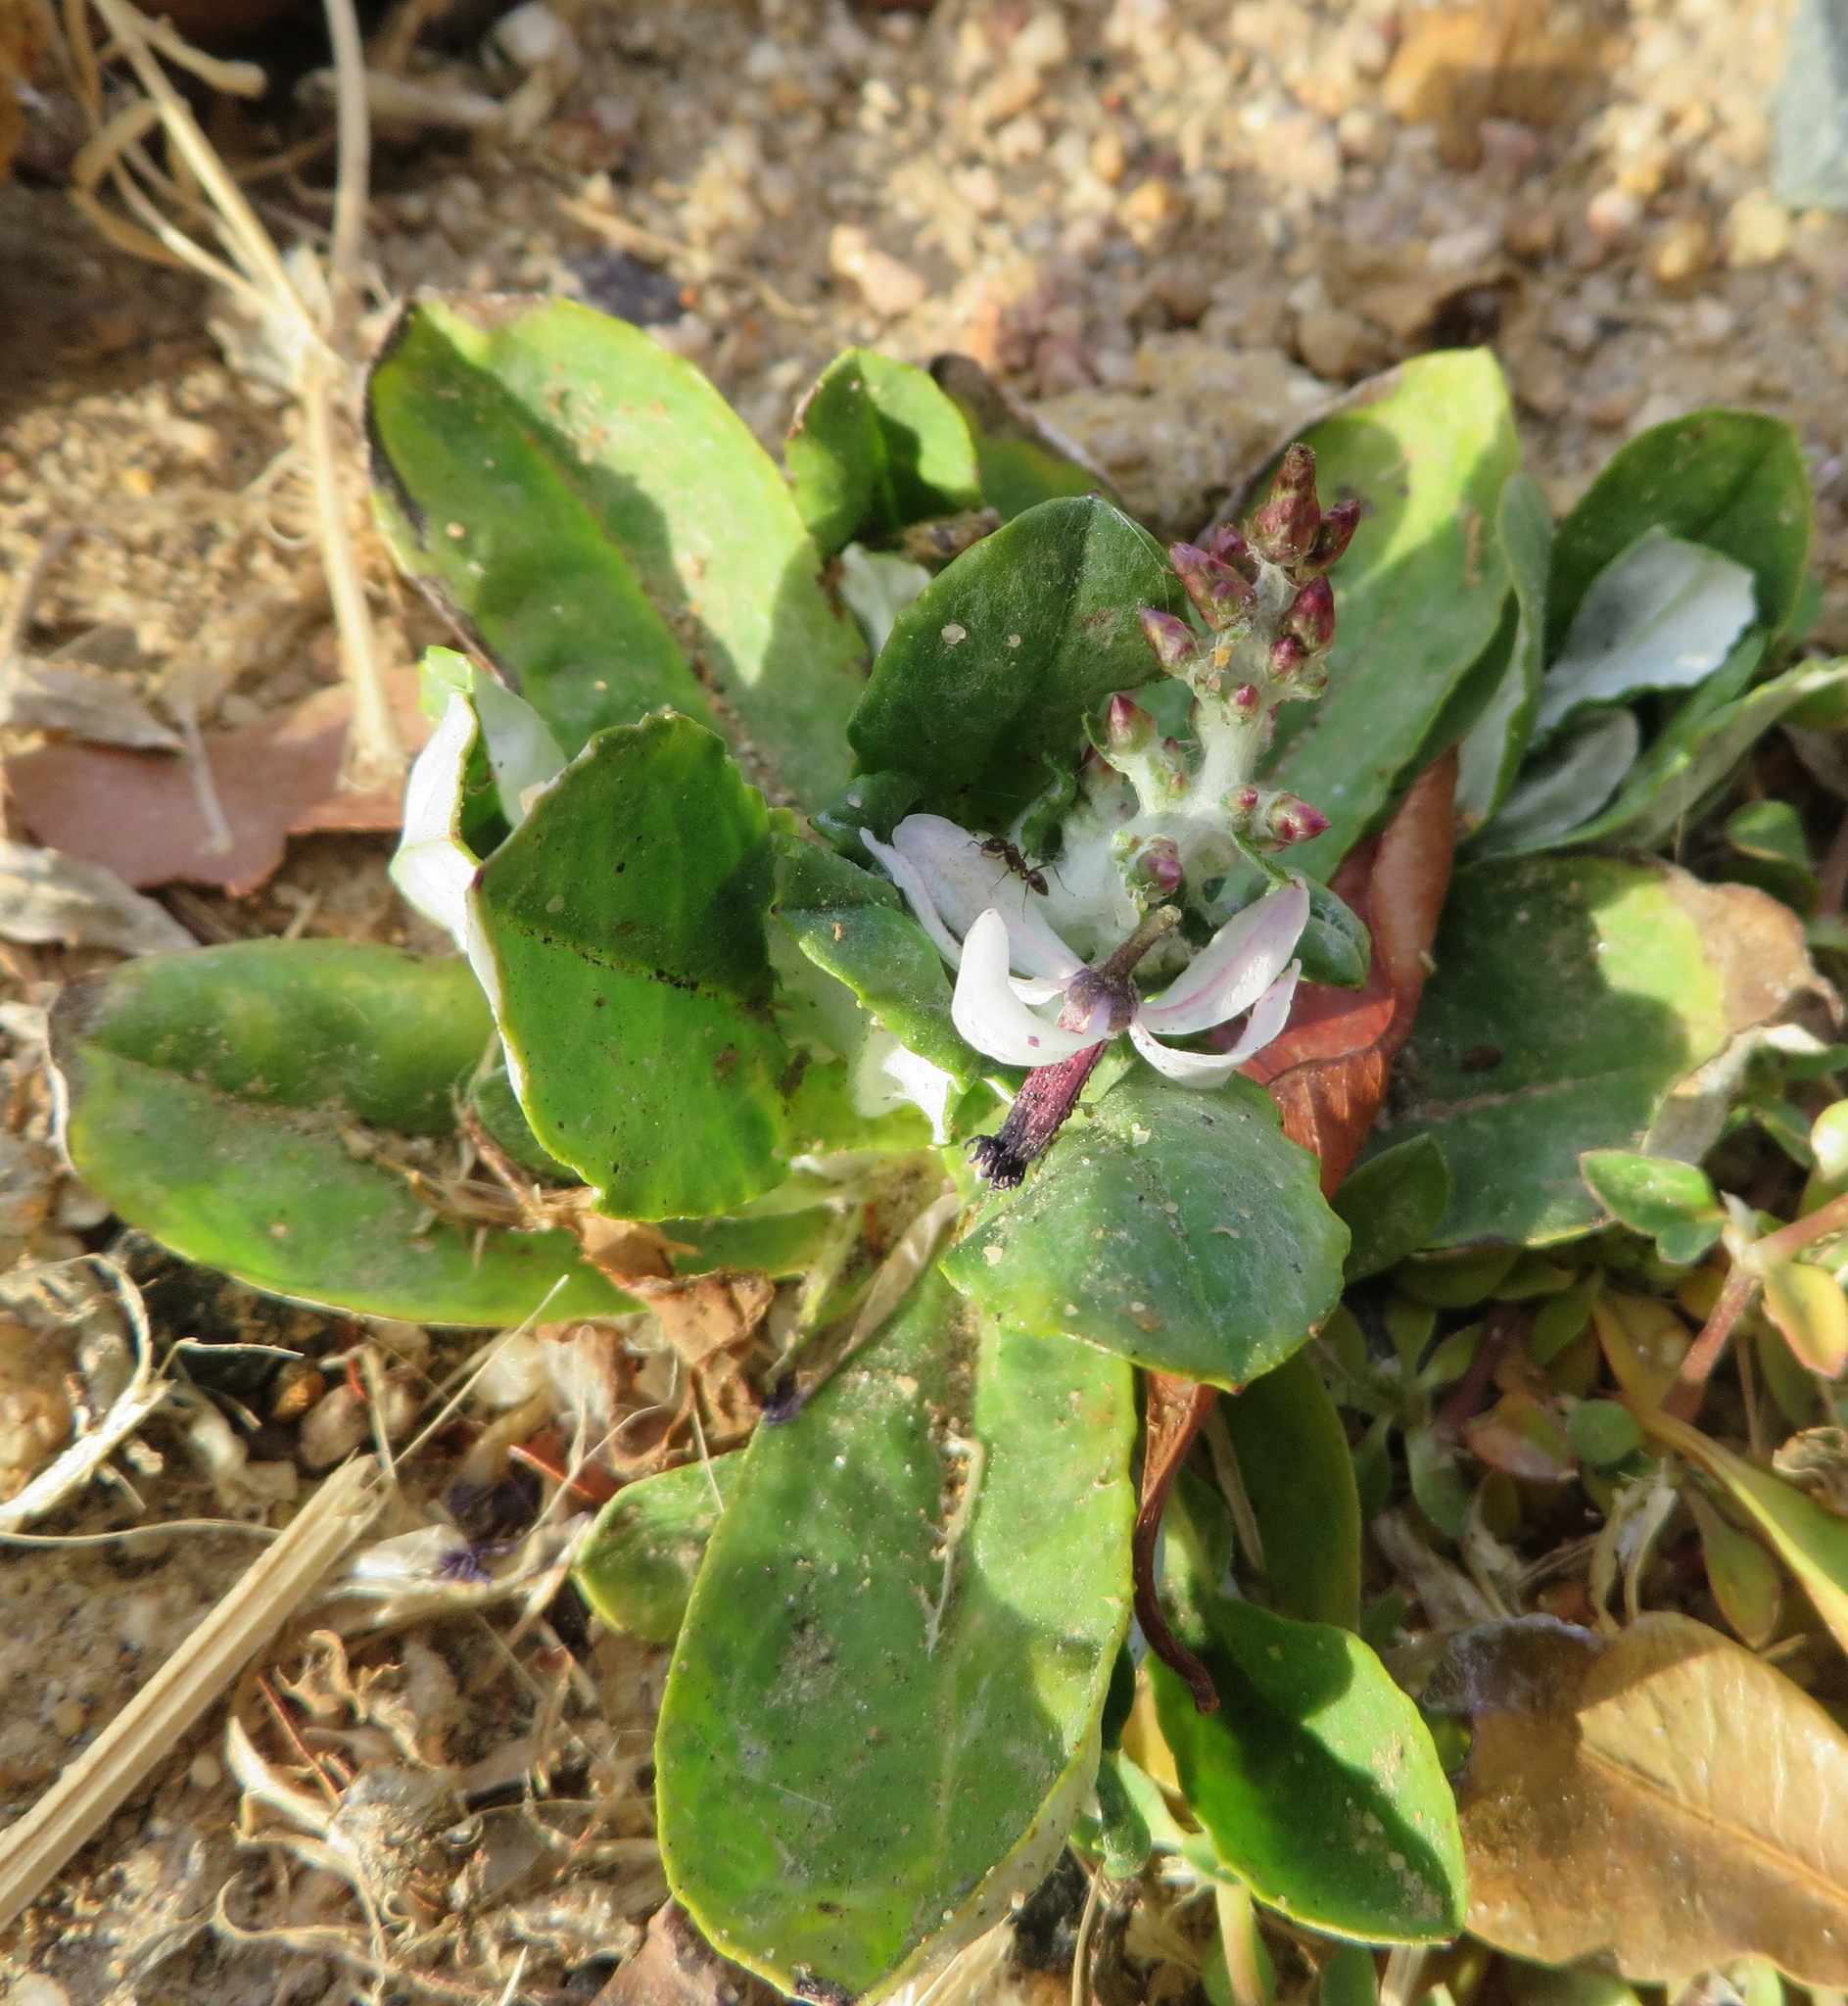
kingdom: Plantae
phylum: Tracheophyta
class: Magnoliopsida
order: Asterales
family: Asteraceae
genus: Gamochaeta
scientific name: Gamochaeta pensylvanica
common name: Pennsylvania everlasting
